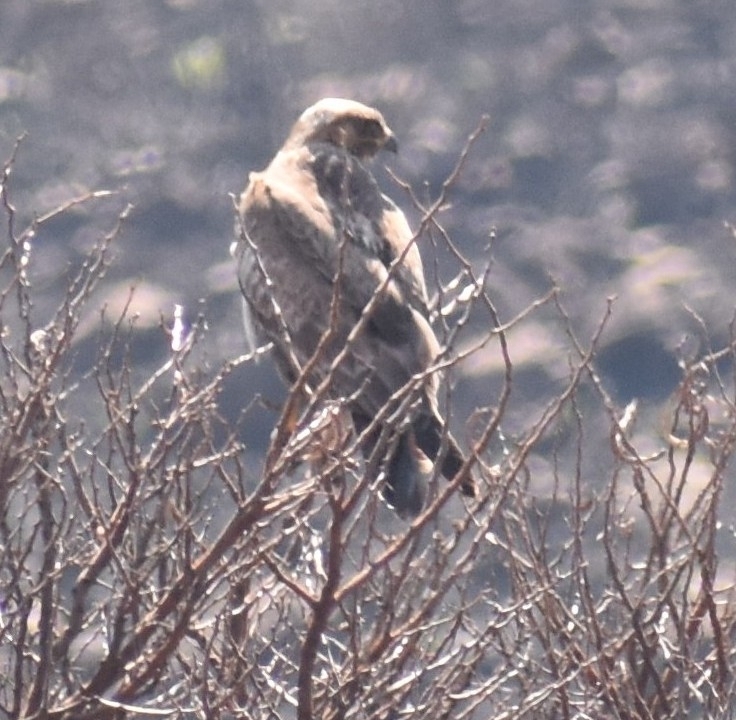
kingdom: Animalia
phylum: Chordata
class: Aves
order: Accipitriformes
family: Accipitridae
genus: Buteo
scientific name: Buteo rufofuscus
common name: Jackal buzzard
